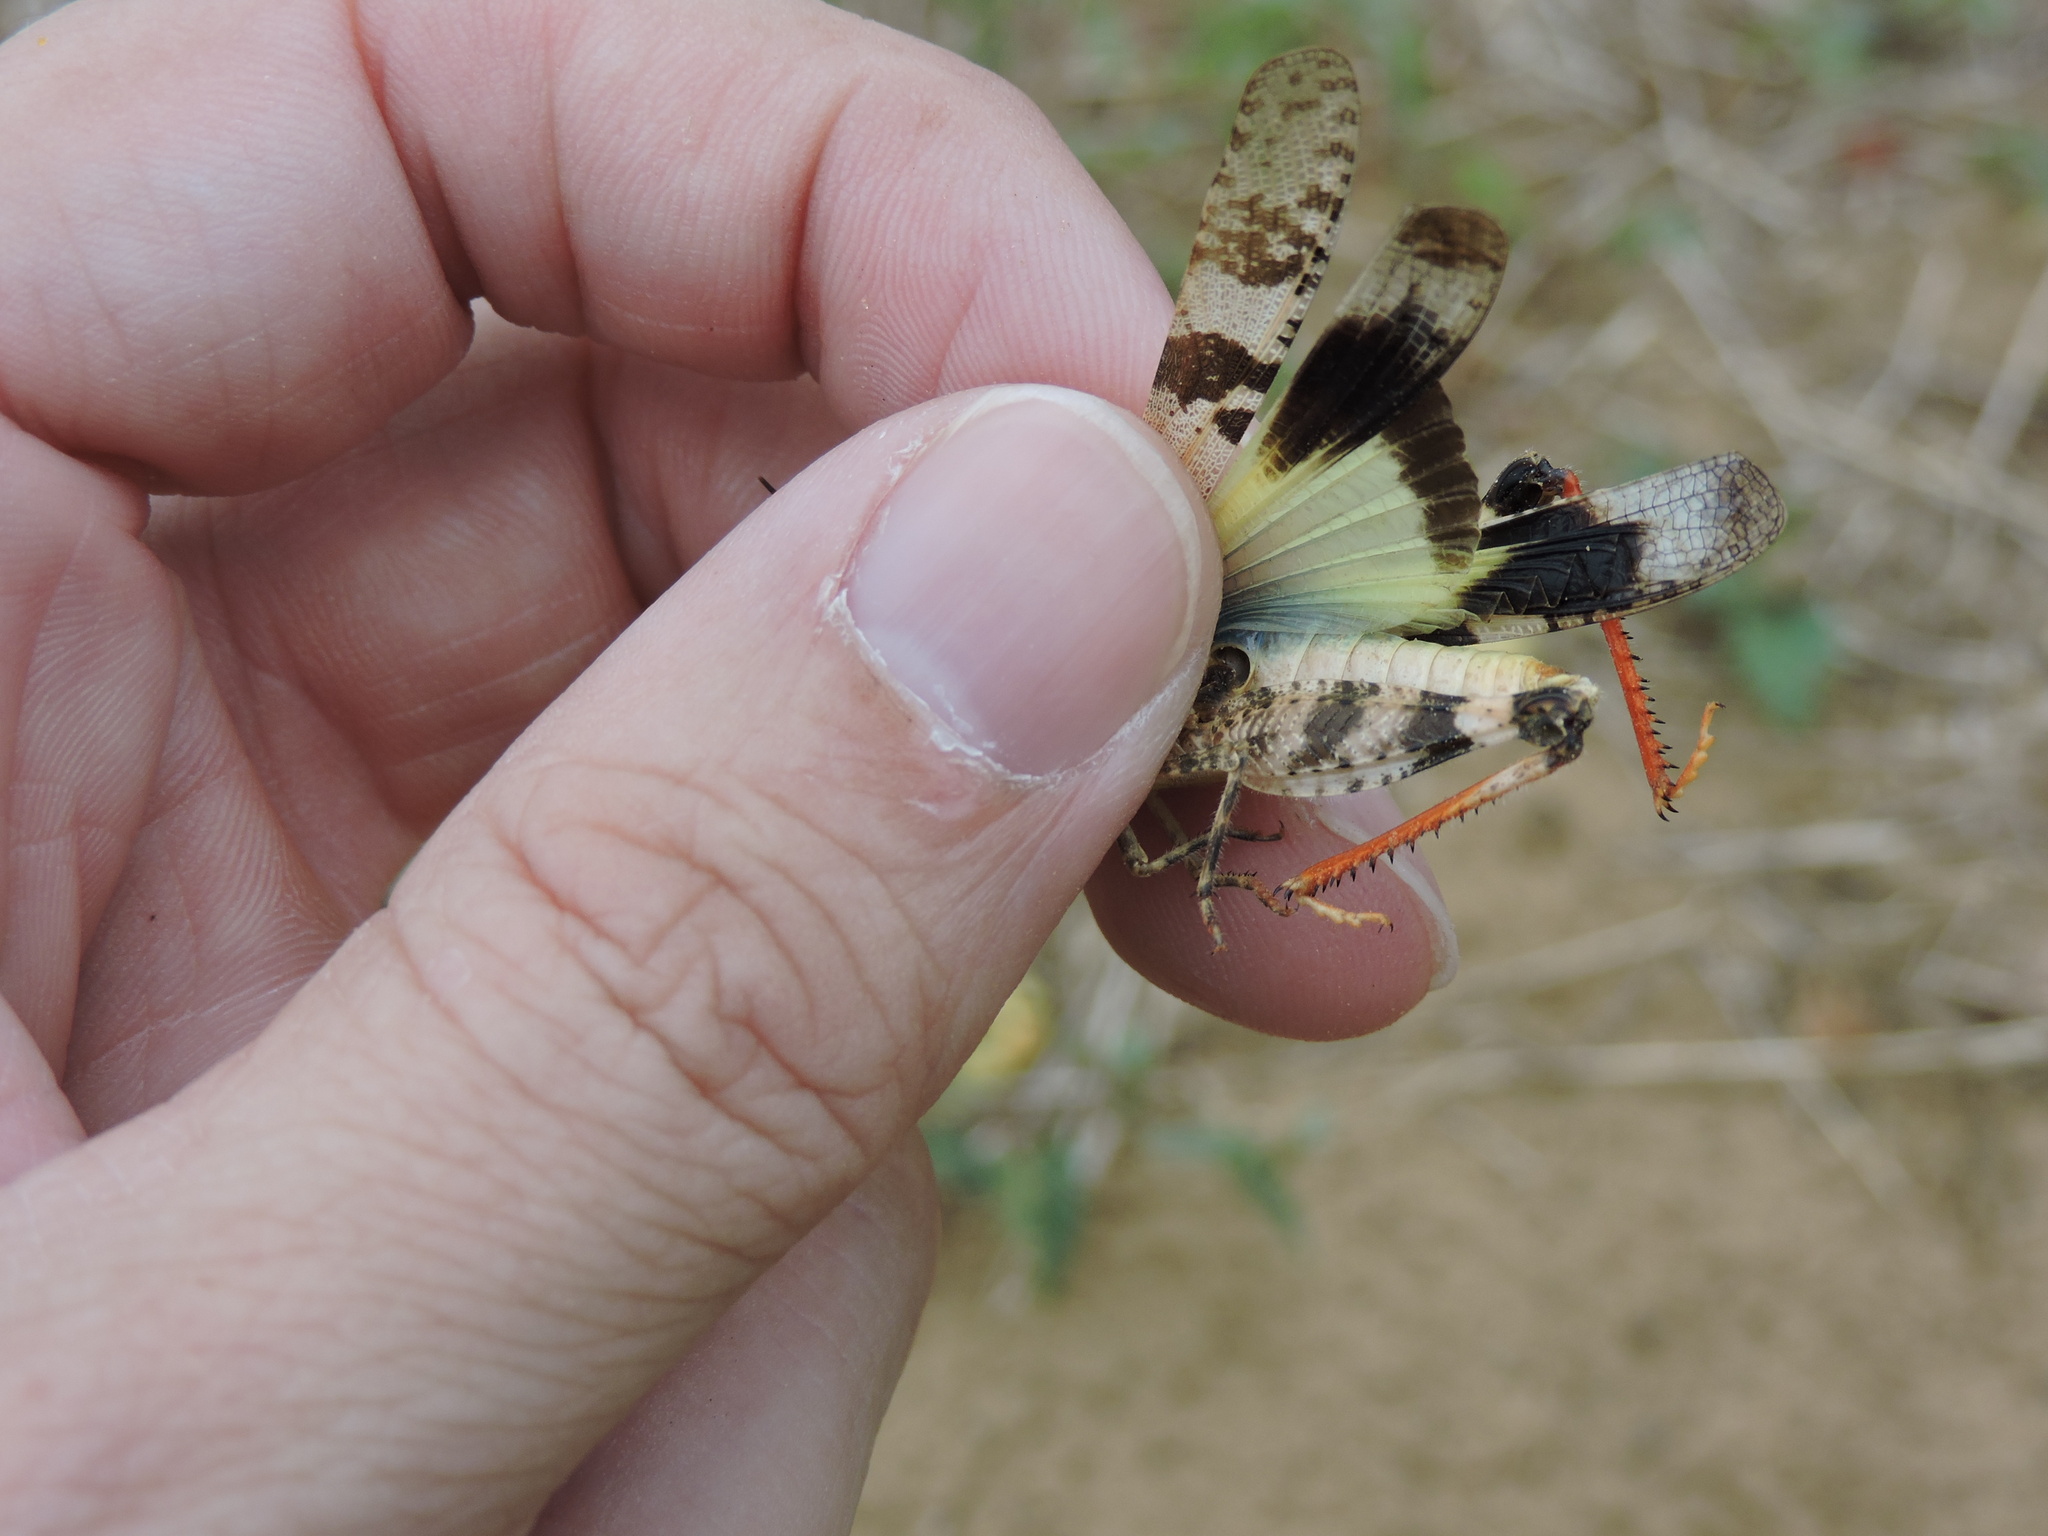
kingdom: Animalia
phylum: Arthropoda
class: Insecta
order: Orthoptera
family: Acrididae
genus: Spharagemon
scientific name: Spharagemon equale
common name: Orange-legged grasshopper
